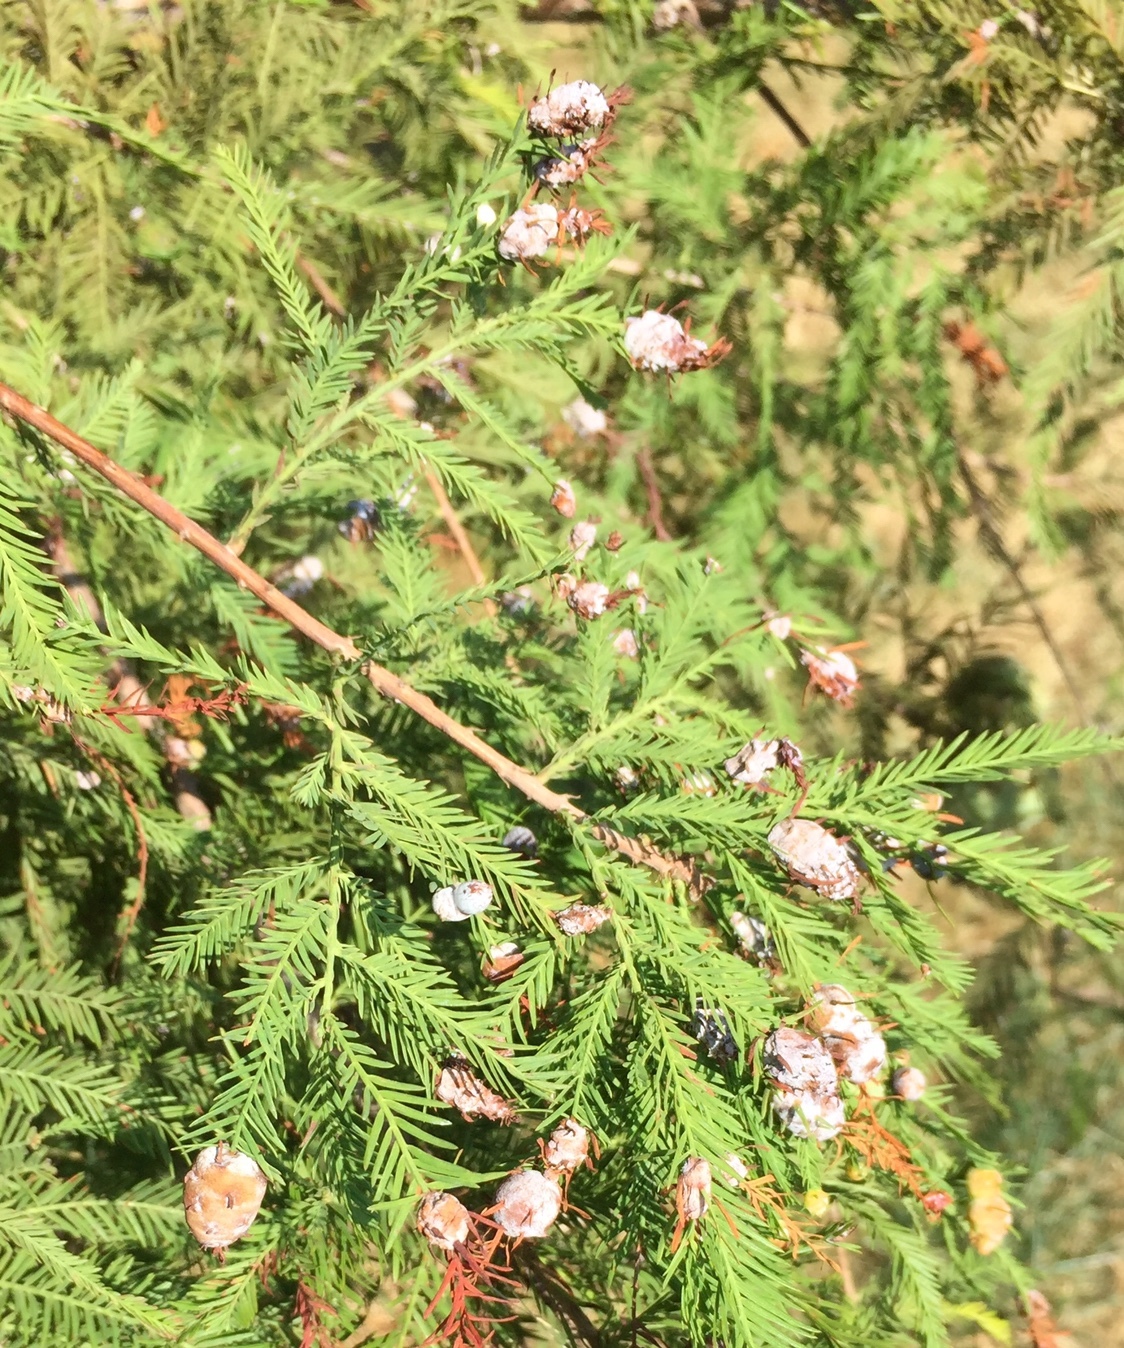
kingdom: Animalia
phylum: Arthropoda
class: Insecta
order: Diptera
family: Cecidomyiidae
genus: Taxodiomyia
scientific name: Taxodiomyia cupressiananassa
